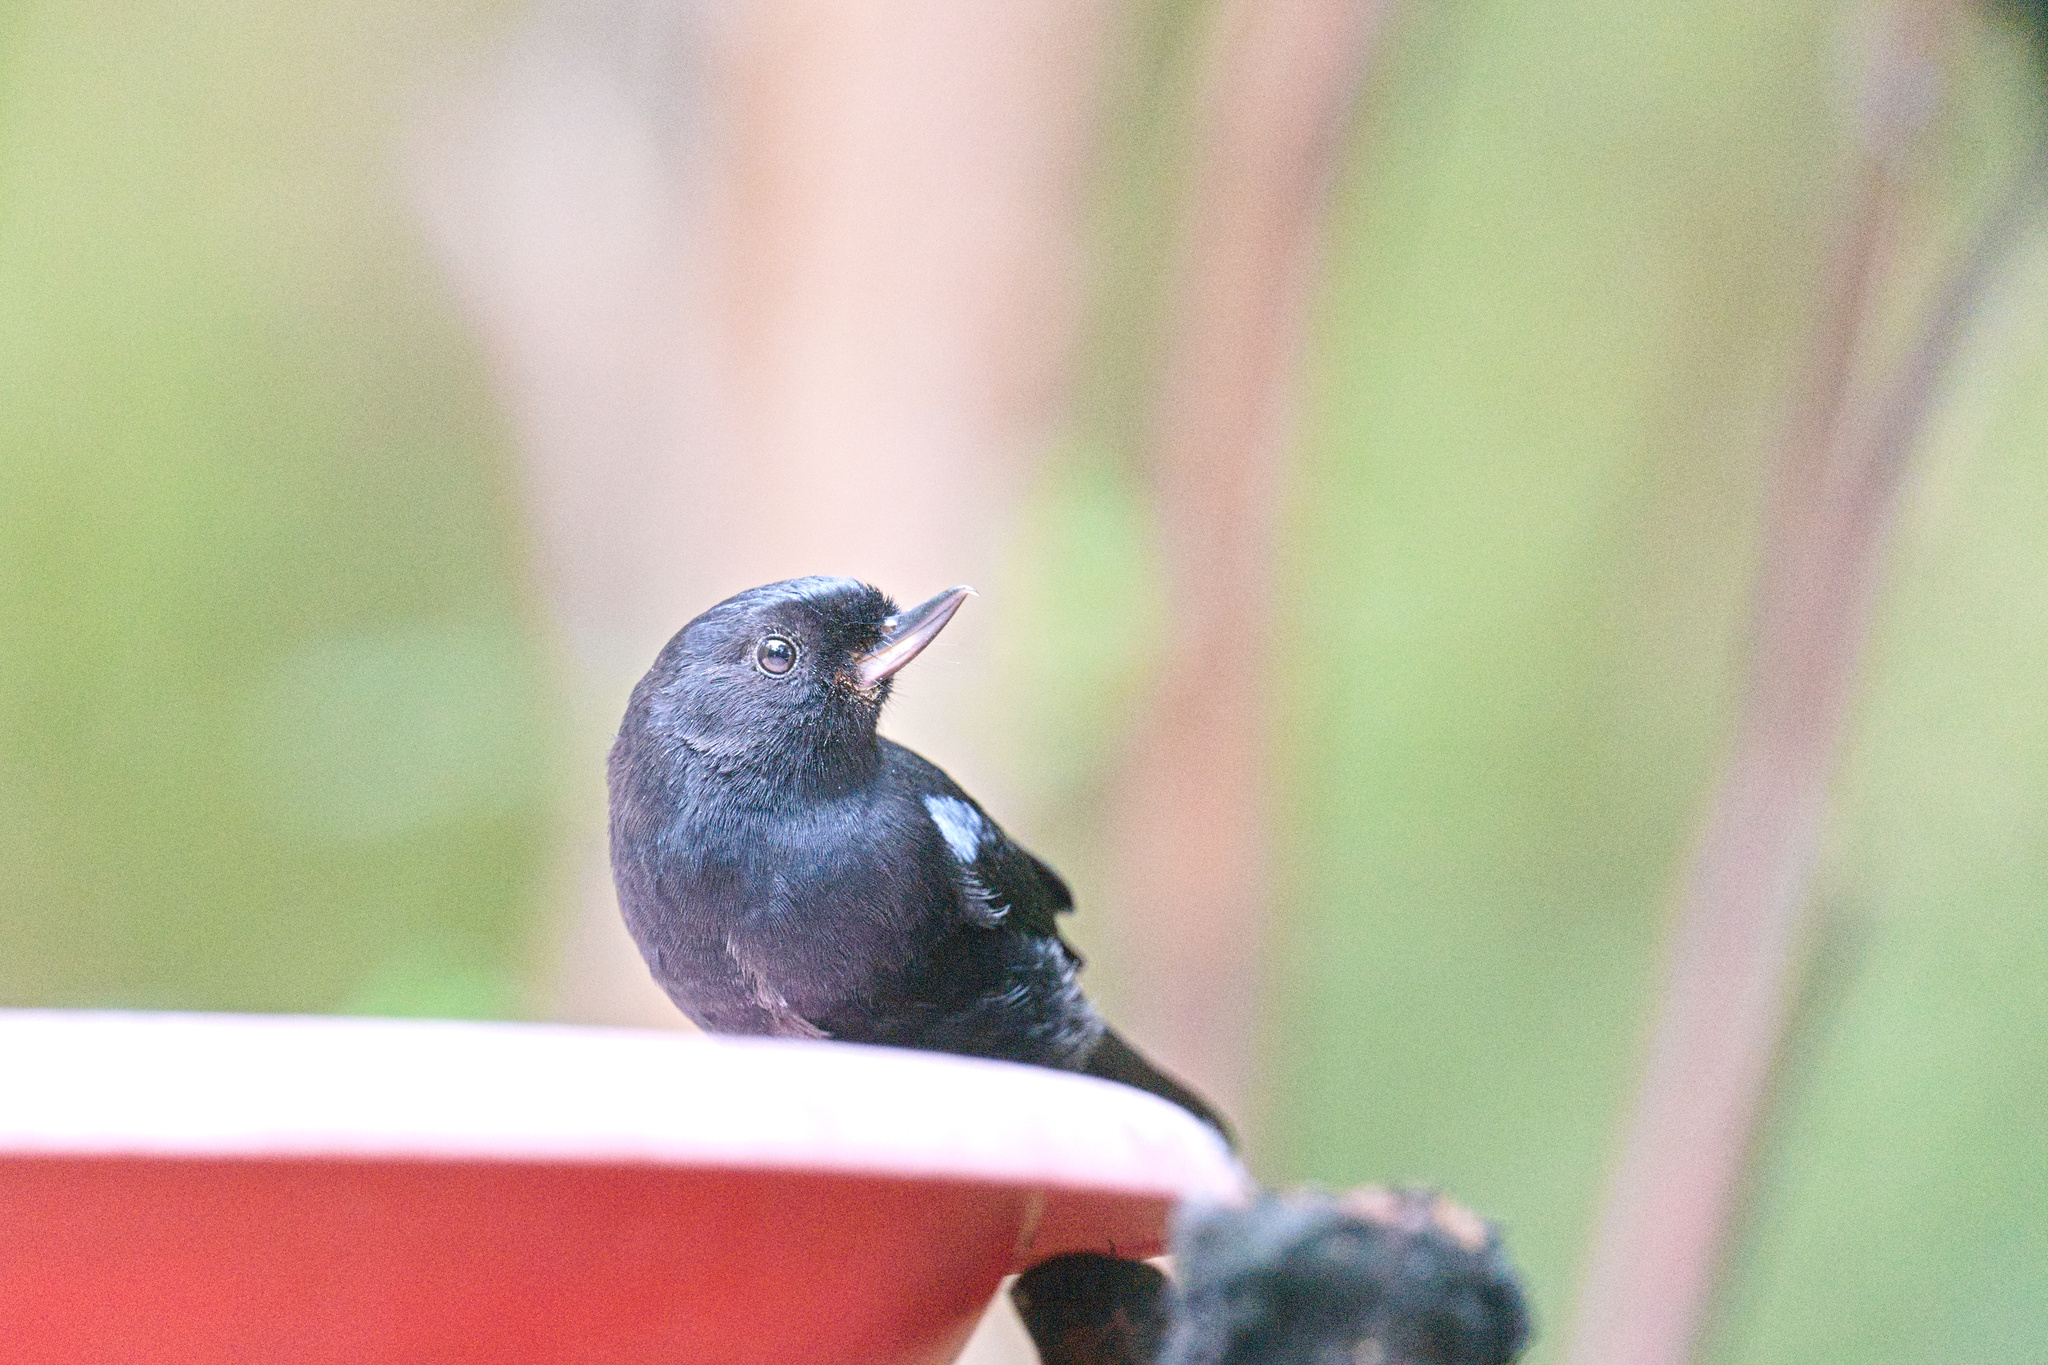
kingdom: Animalia
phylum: Chordata
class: Aves
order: Passeriformes
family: Thraupidae
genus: Diglossa
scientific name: Diglossa lafresnayii
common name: Glossy flowerpiercer
